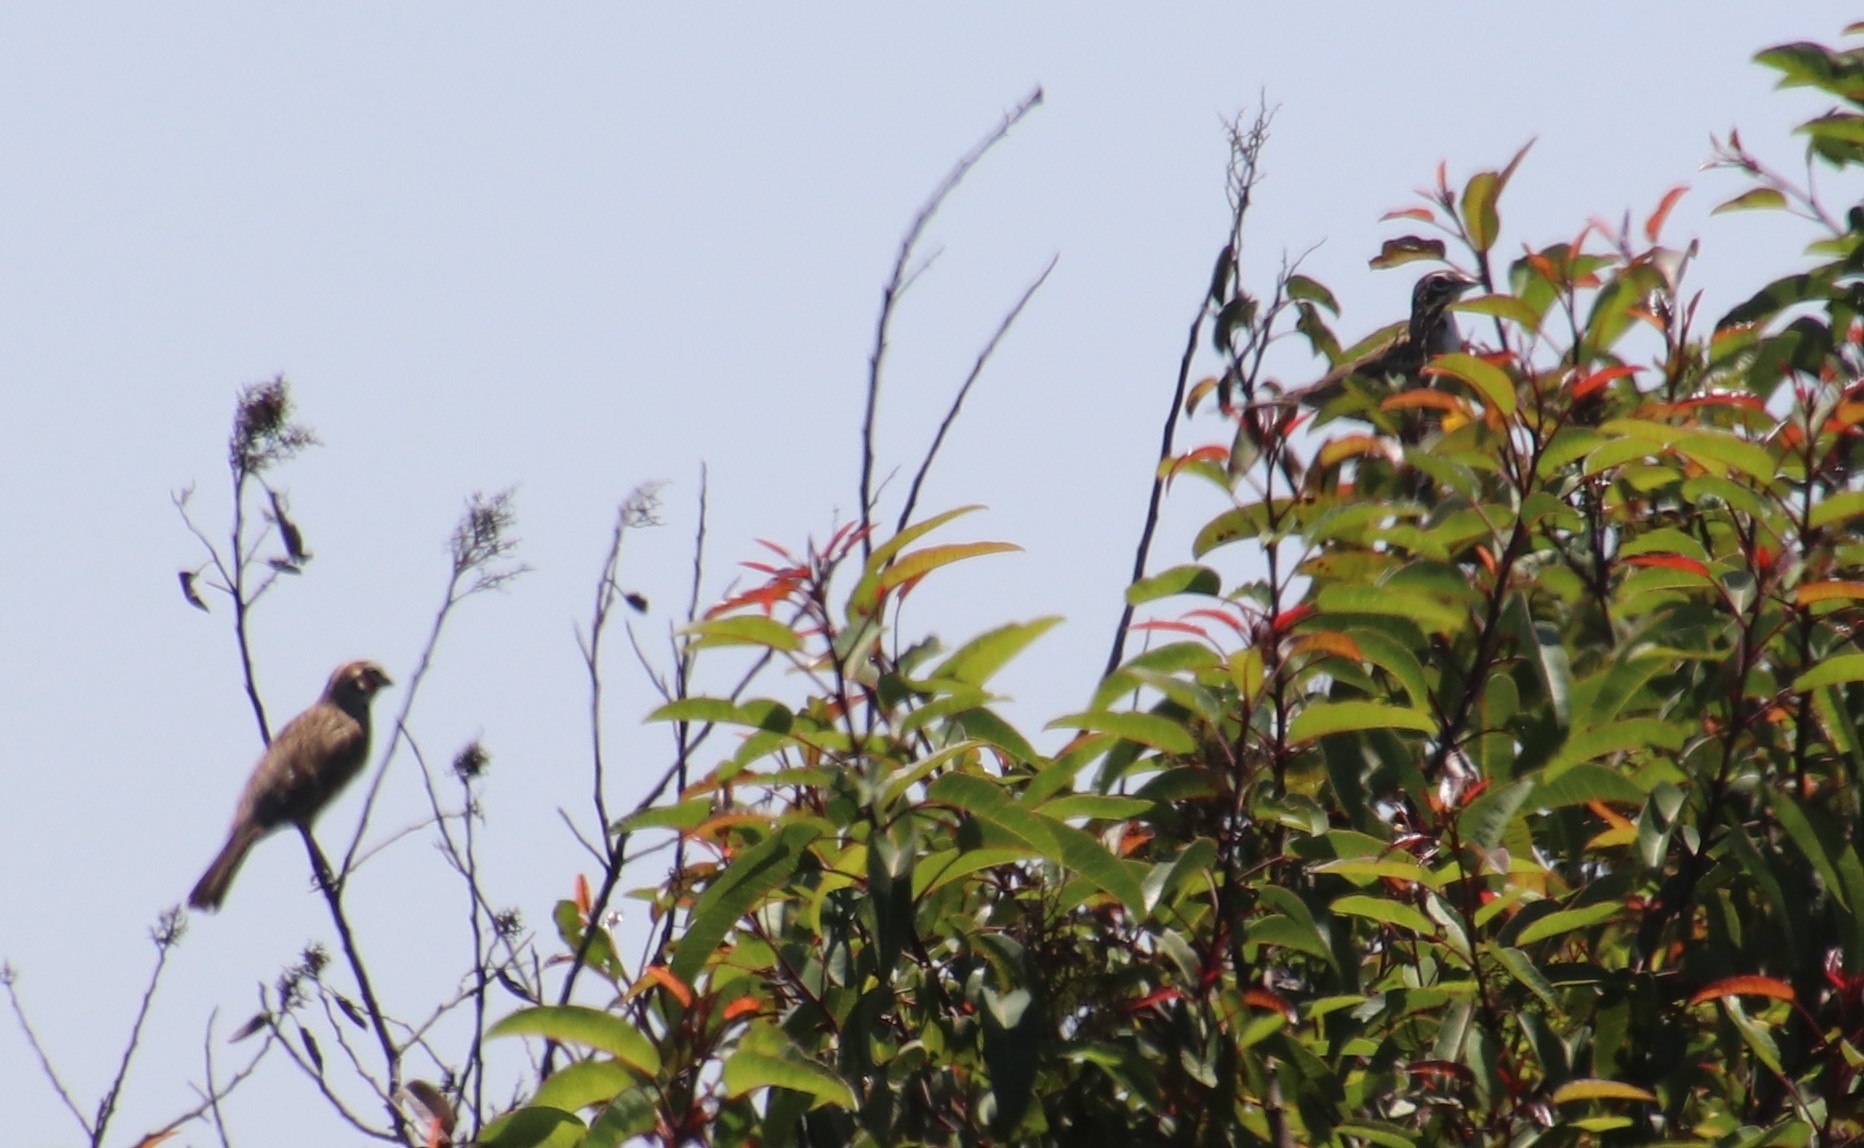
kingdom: Animalia
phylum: Chordata
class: Aves
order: Passeriformes
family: Passerellidae
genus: Chondestes
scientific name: Chondestes grammacus
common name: Lark sparrow
